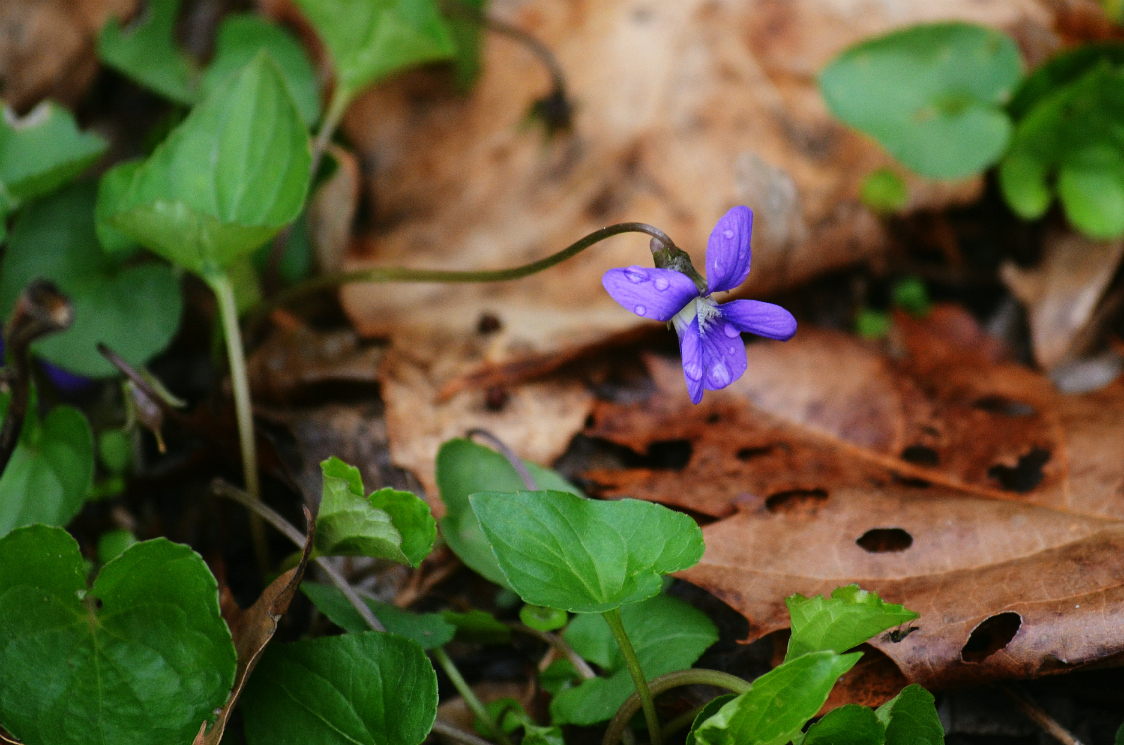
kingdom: Plantae
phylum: Tracheophyta
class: Magnoliopsida
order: Malpighiales
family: Violaceae
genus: Viola
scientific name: Viola sororia
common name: Dooryard violet
